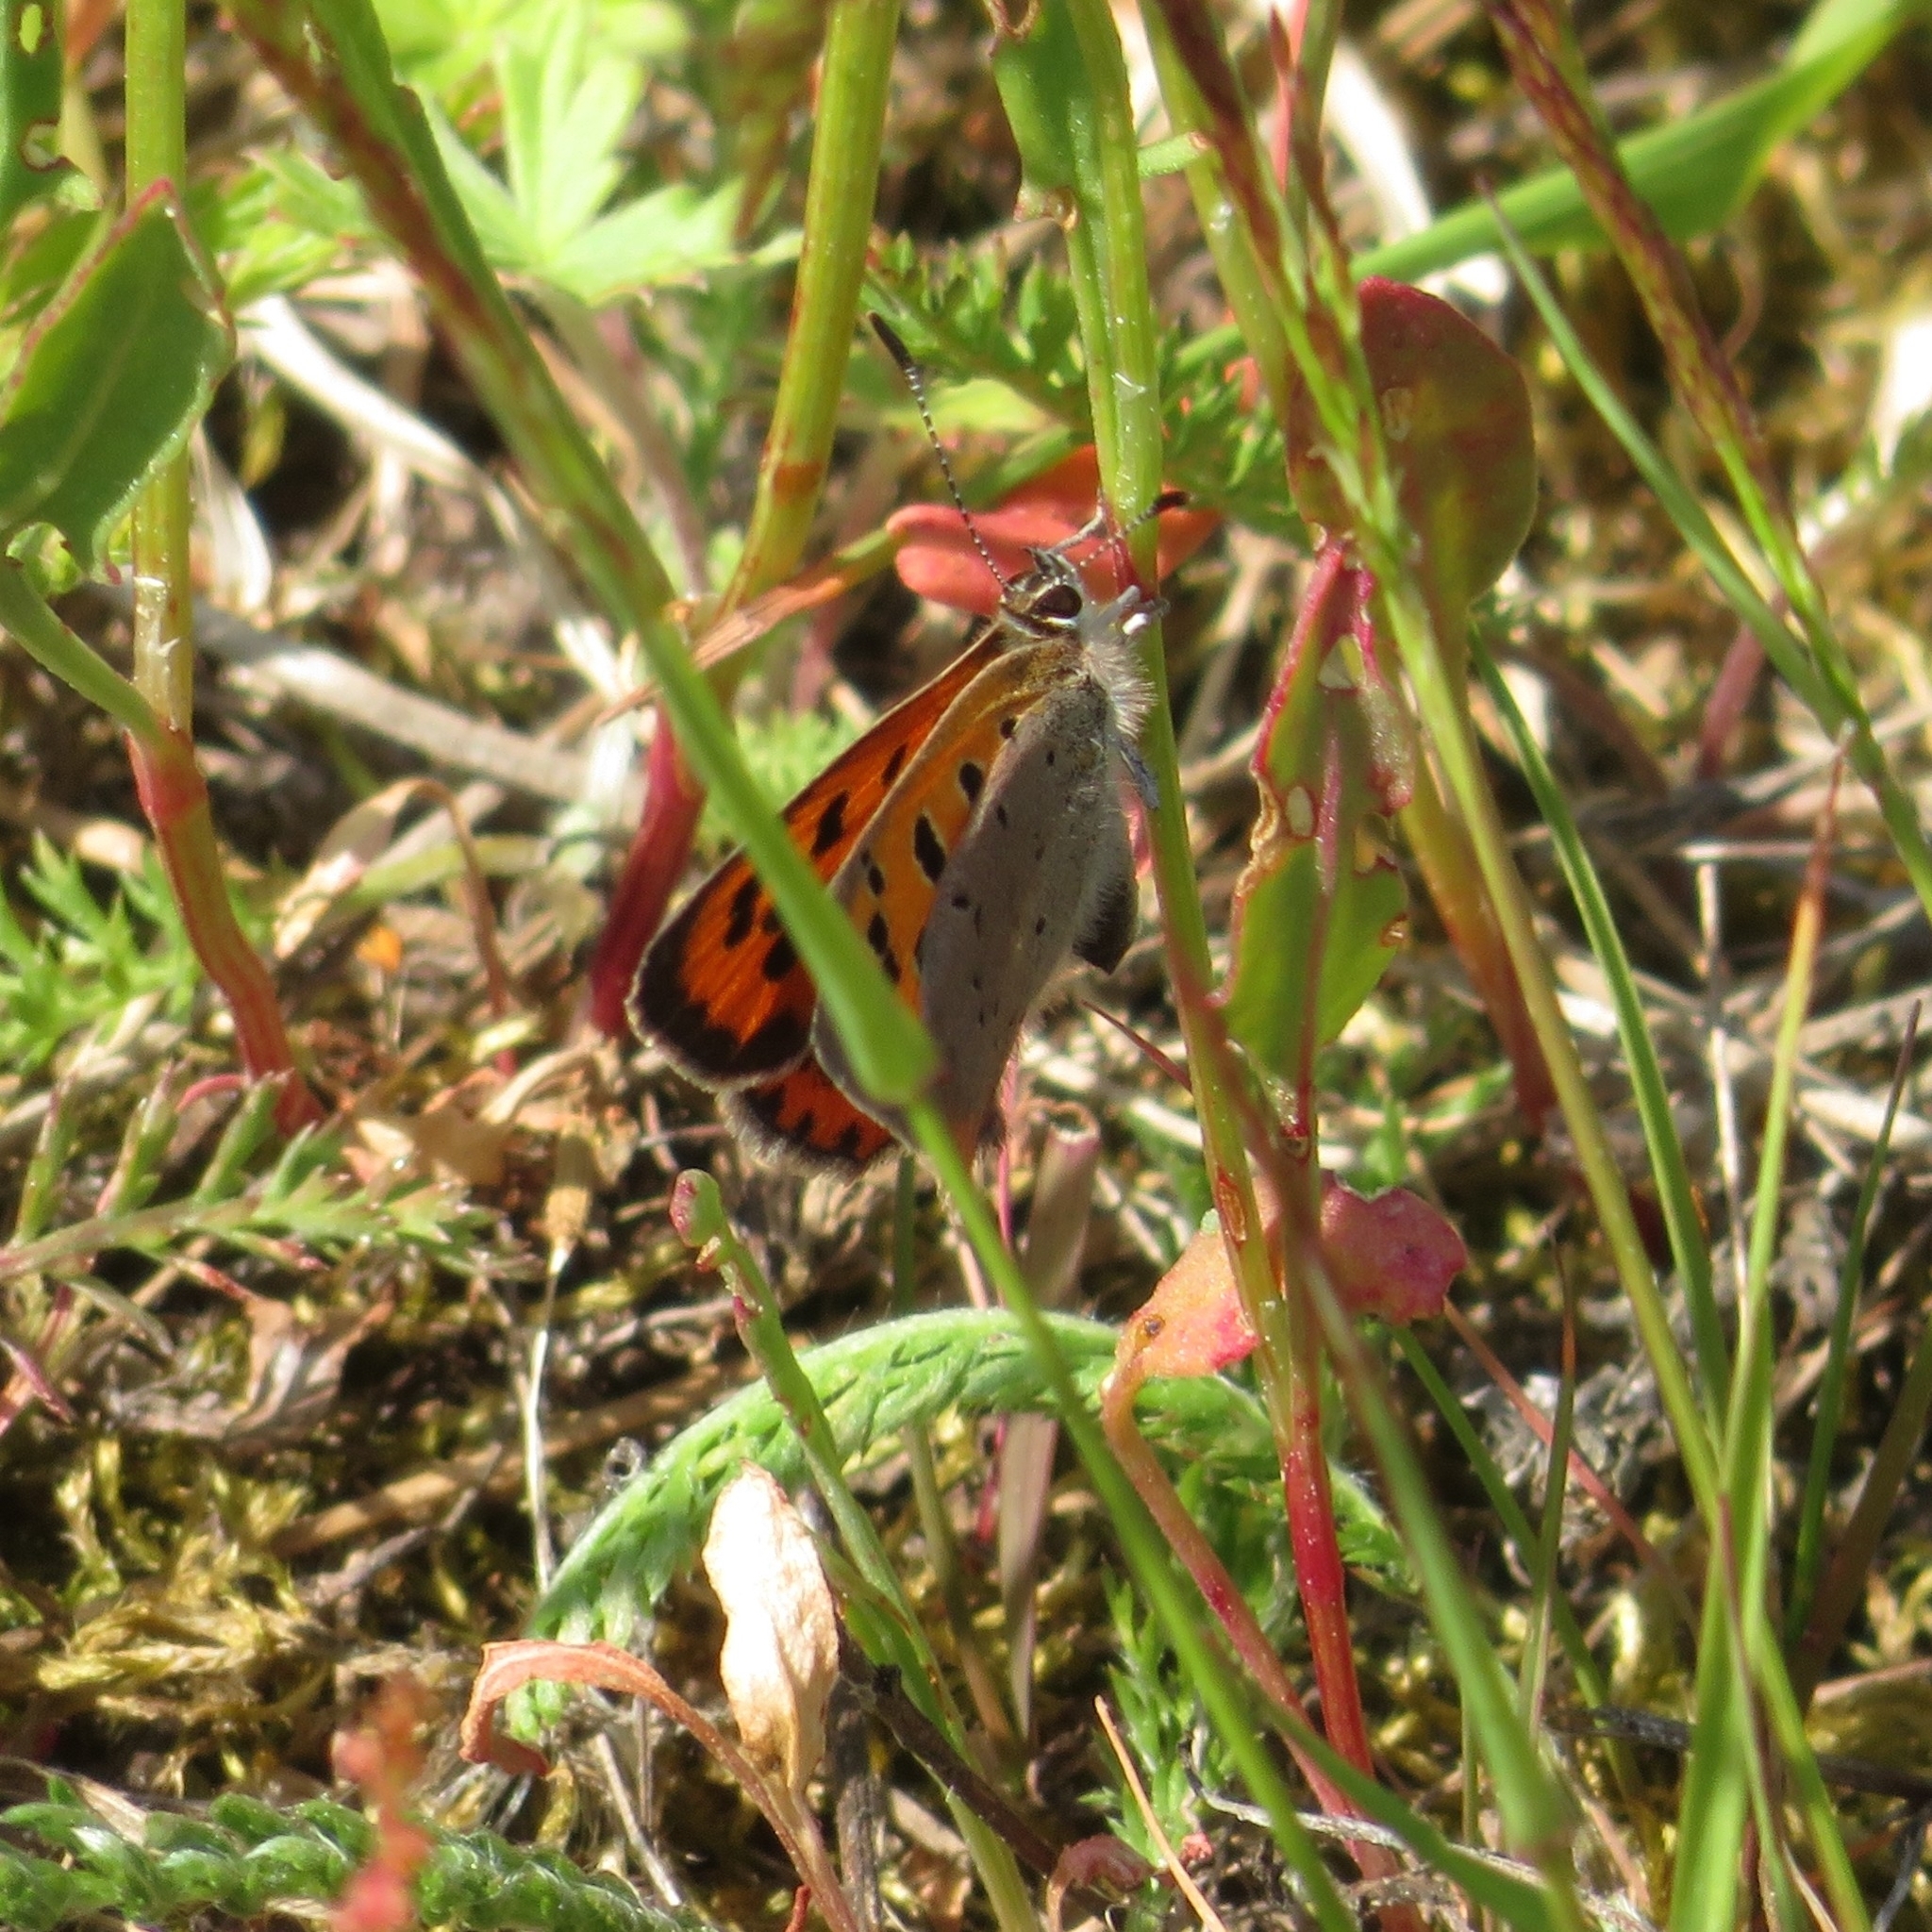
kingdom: Animalia
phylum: Arthropoda
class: Insecta
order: Lepidoptera
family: Lycaenidae
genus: Lycaena
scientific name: Lycaena phlaeas
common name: Small copper
